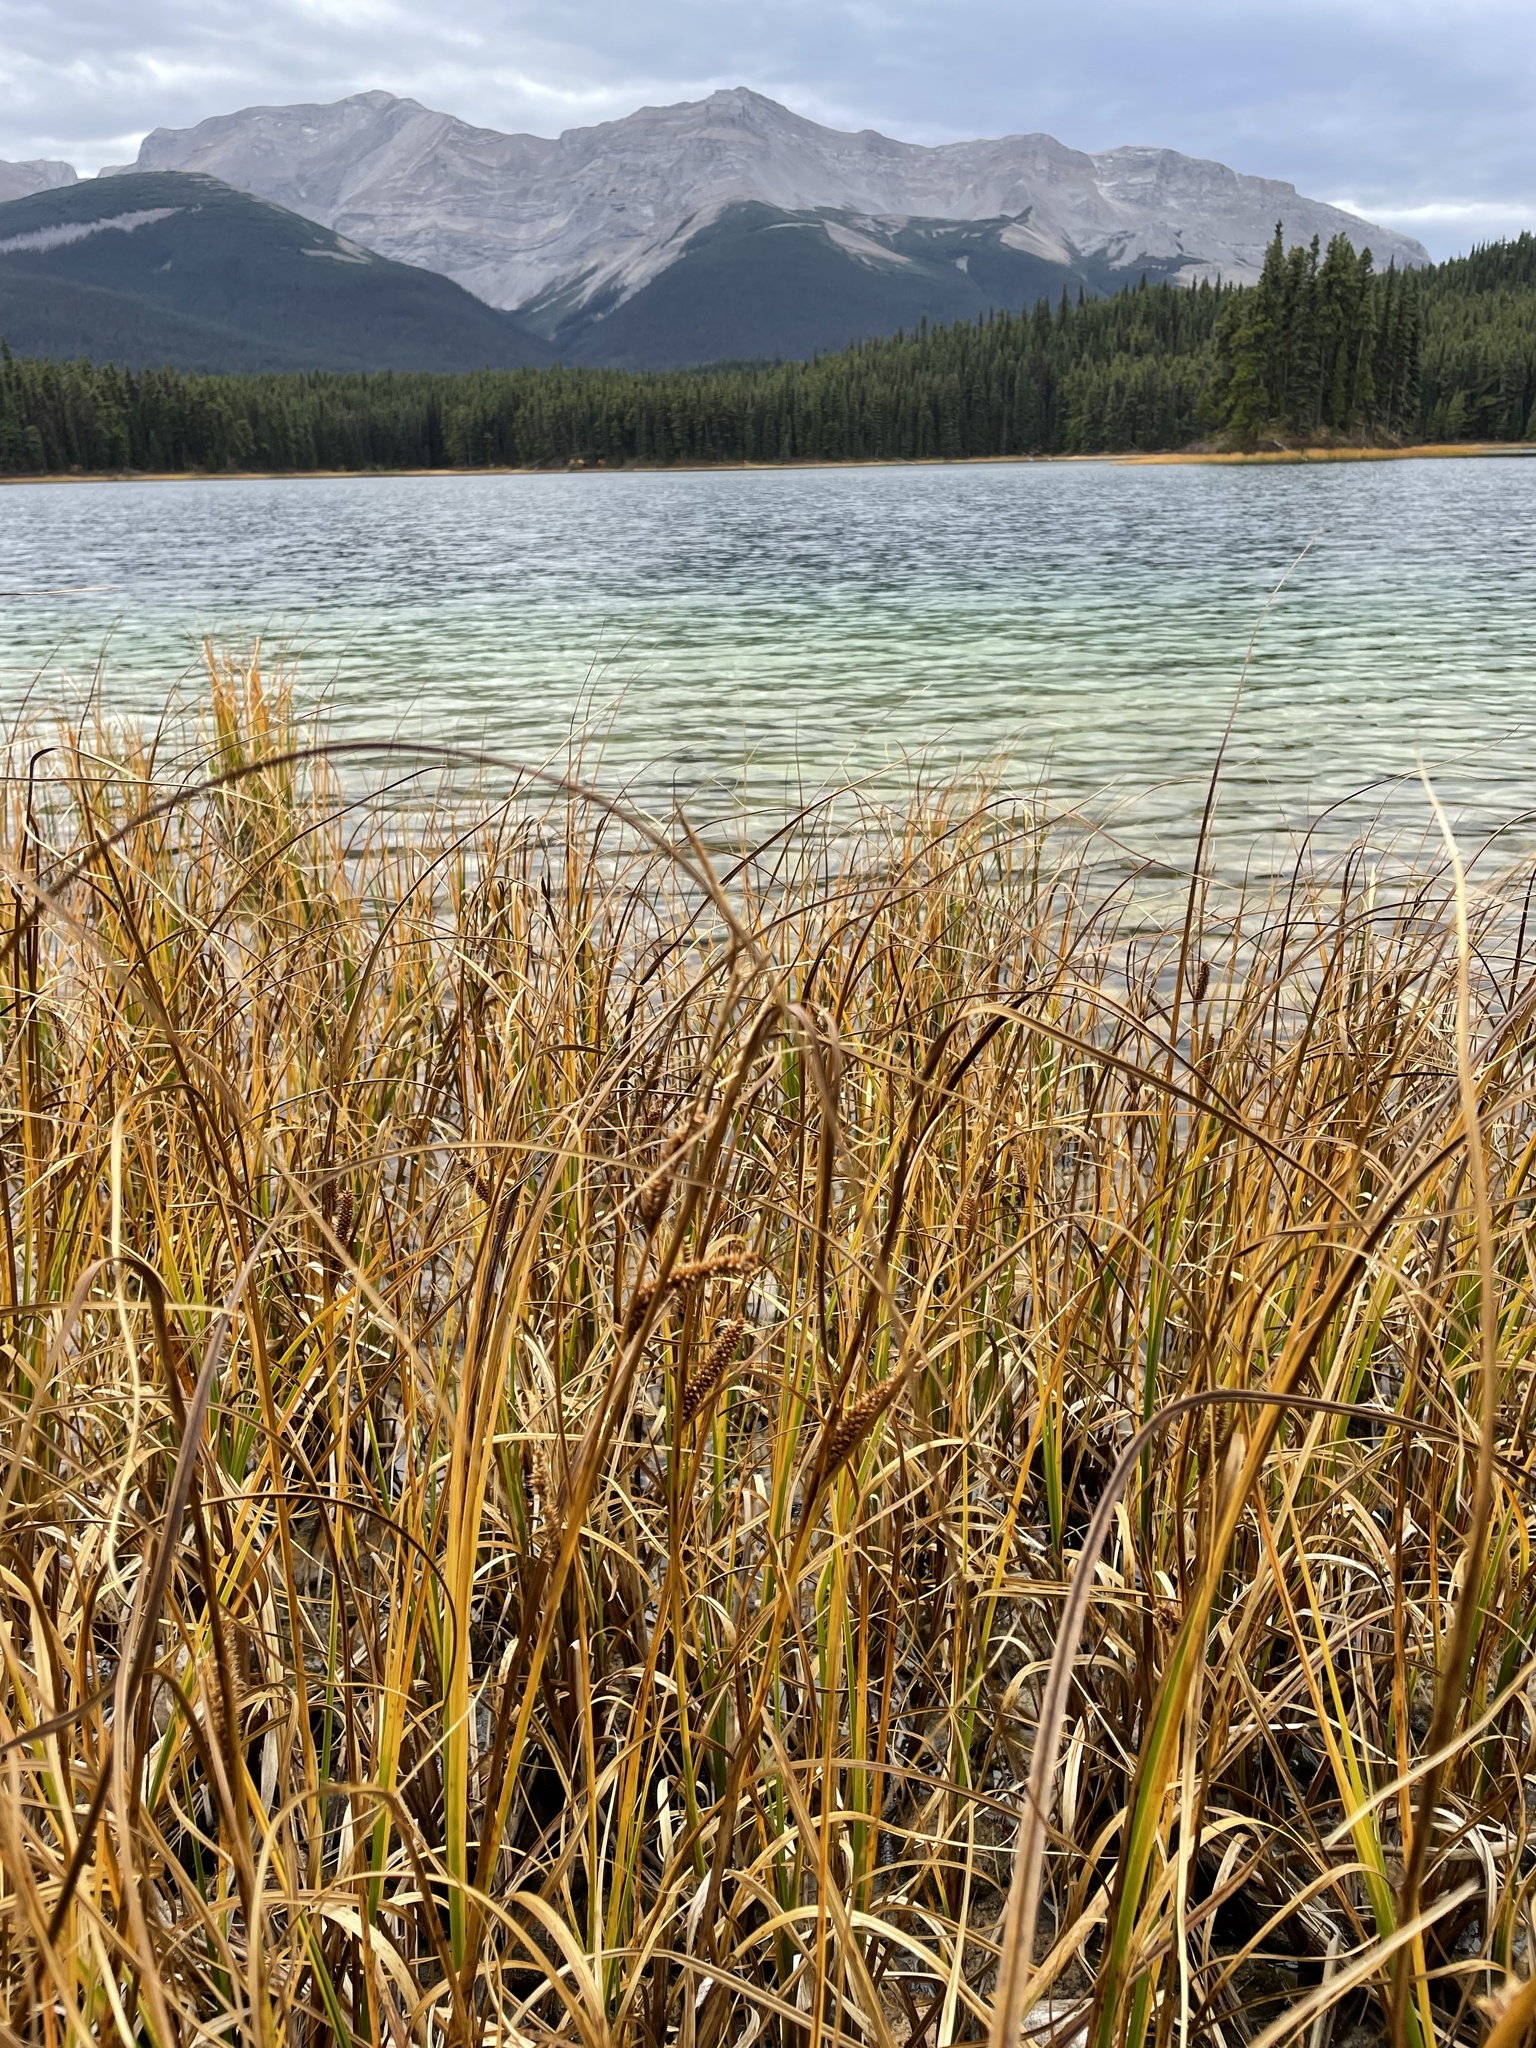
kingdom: Plantae
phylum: Tracheophyta
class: Liliopsida
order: Poales
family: Cyperaceae
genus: Carex
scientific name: Carex utriculata
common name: Beaked sedge
